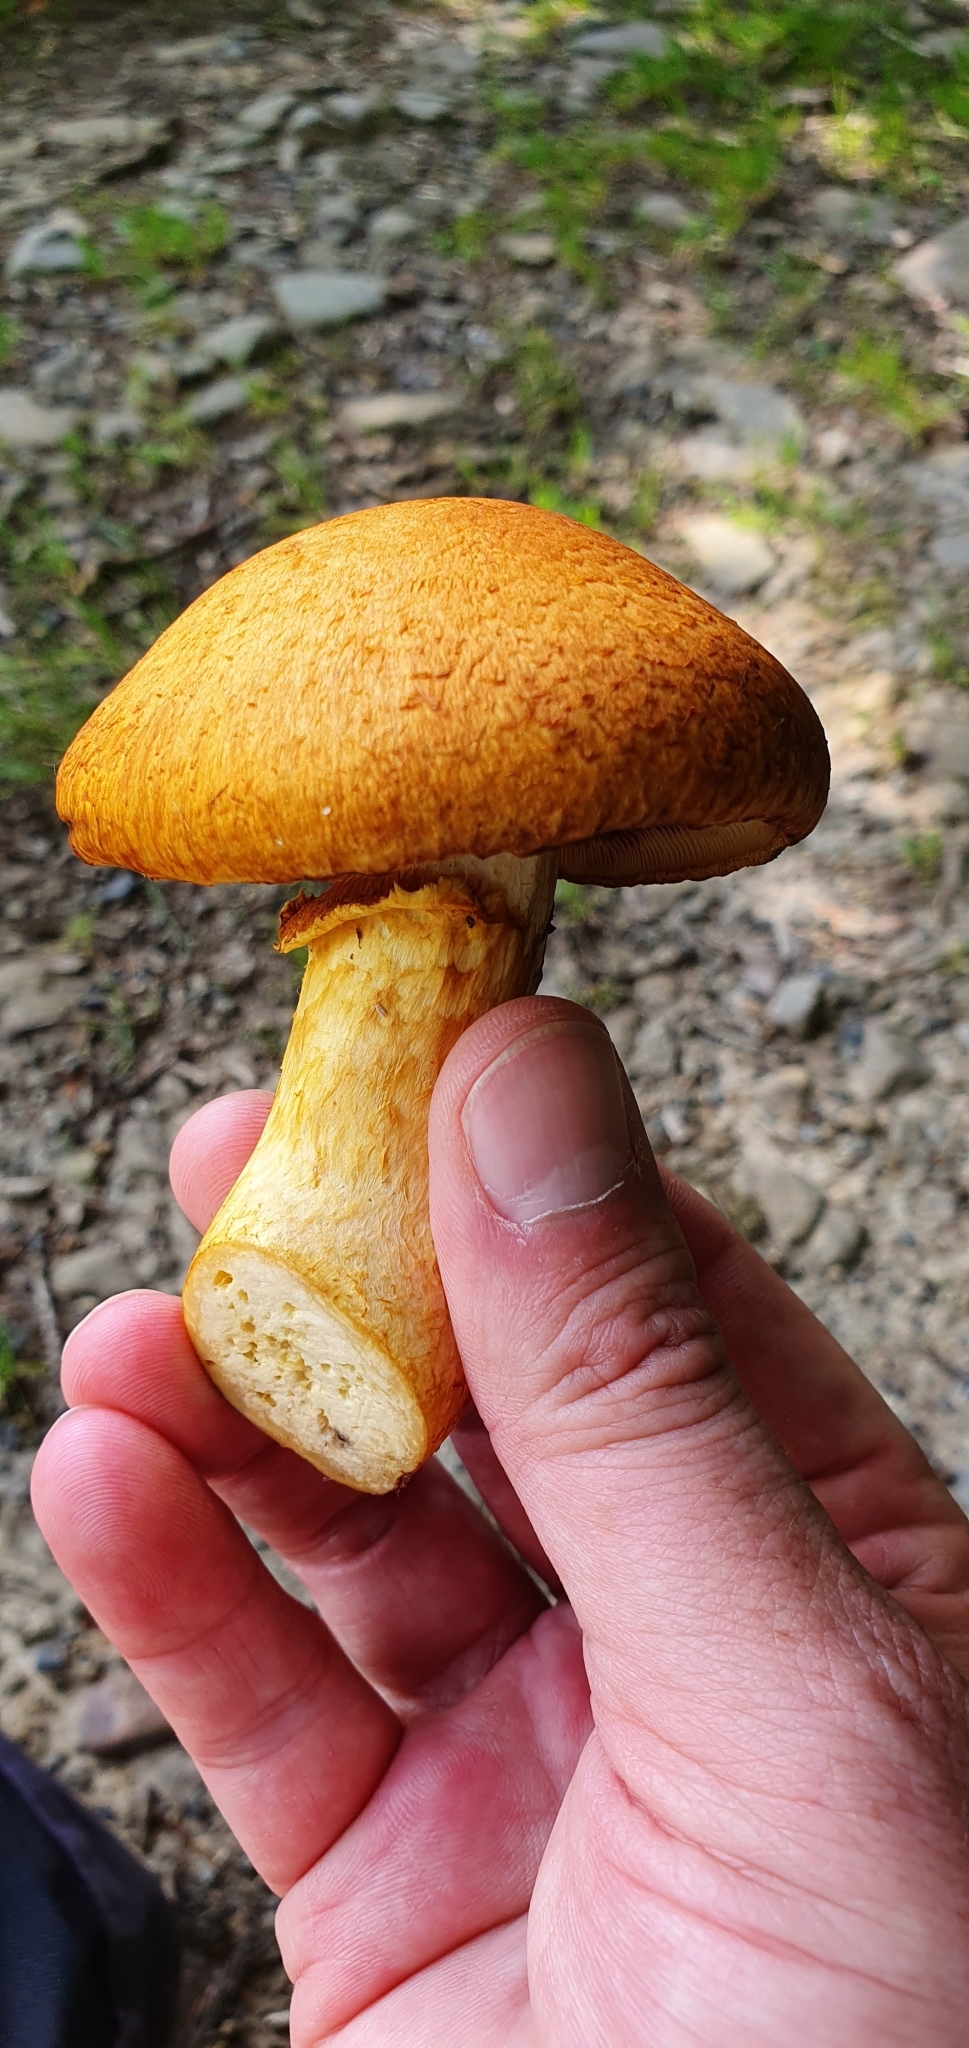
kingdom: Fungi
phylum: Basidiomycota
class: Agaricomycetes
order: Agaricales
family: Hymenogastraceae
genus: Gymnopilus
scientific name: Gymnopilus junonius
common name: Spectacular rustgill
